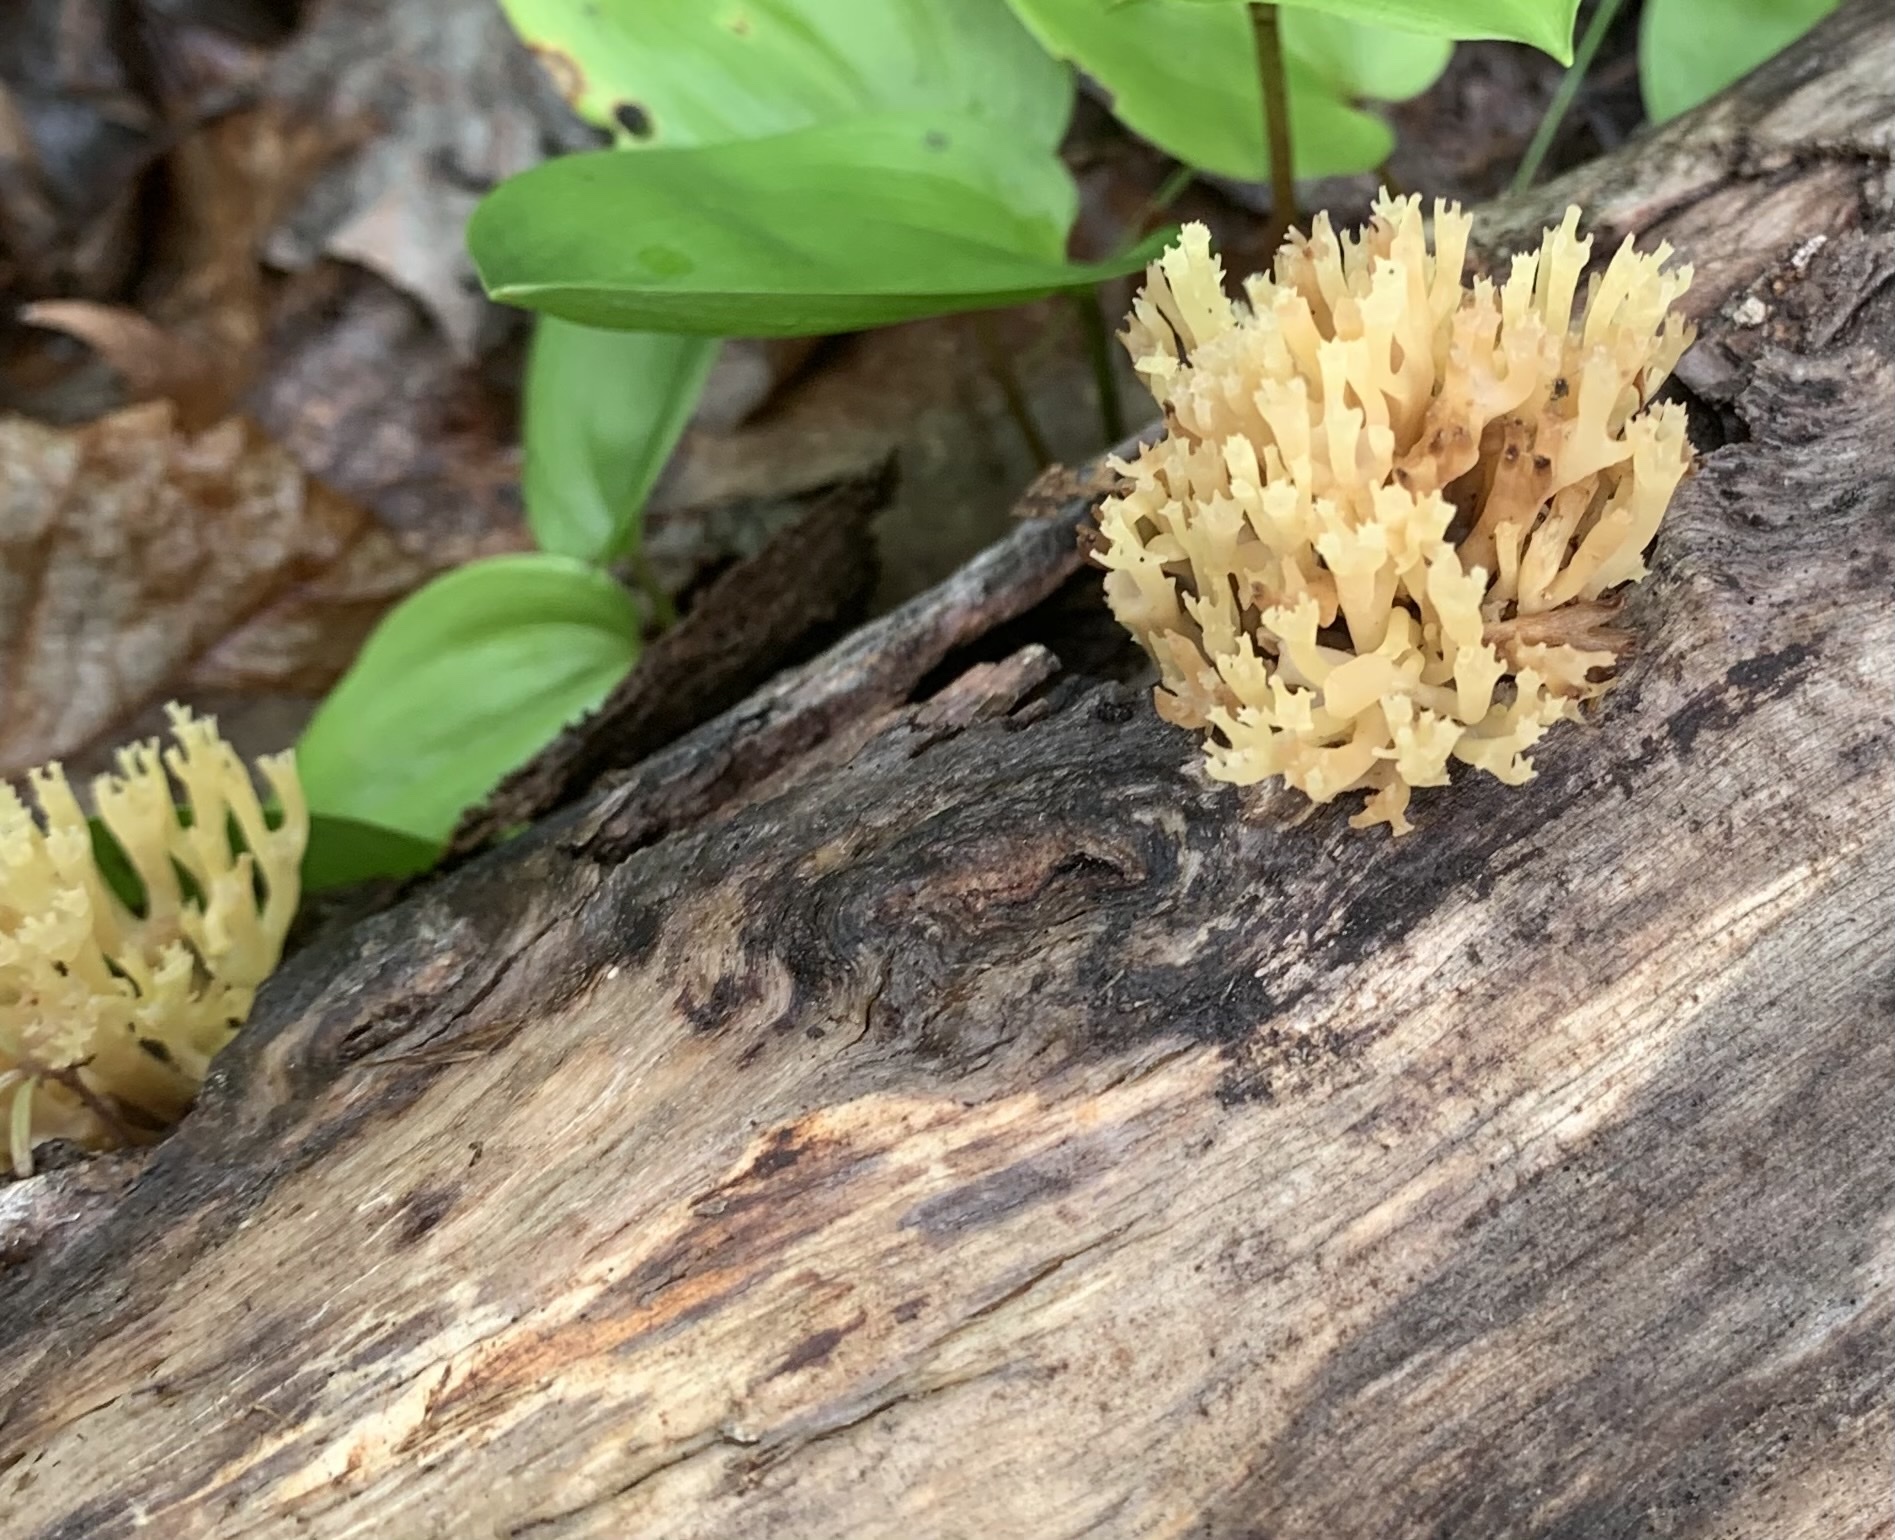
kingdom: Fungi
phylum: Basidiomycota
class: Agaricomycetes
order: Russulales
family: Auriscalpiaceae
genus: Artomyces
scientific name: Artomyces pyxidatus
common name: Crown-tipped coral fungus
